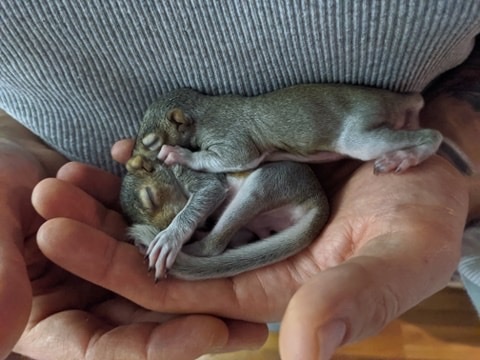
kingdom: Animalia
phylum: Chordata
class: Mammalia
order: Rodentia
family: Sciuridae
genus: Sciurus
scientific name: Sciurus carolinensis
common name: Eastern gray squirrel
